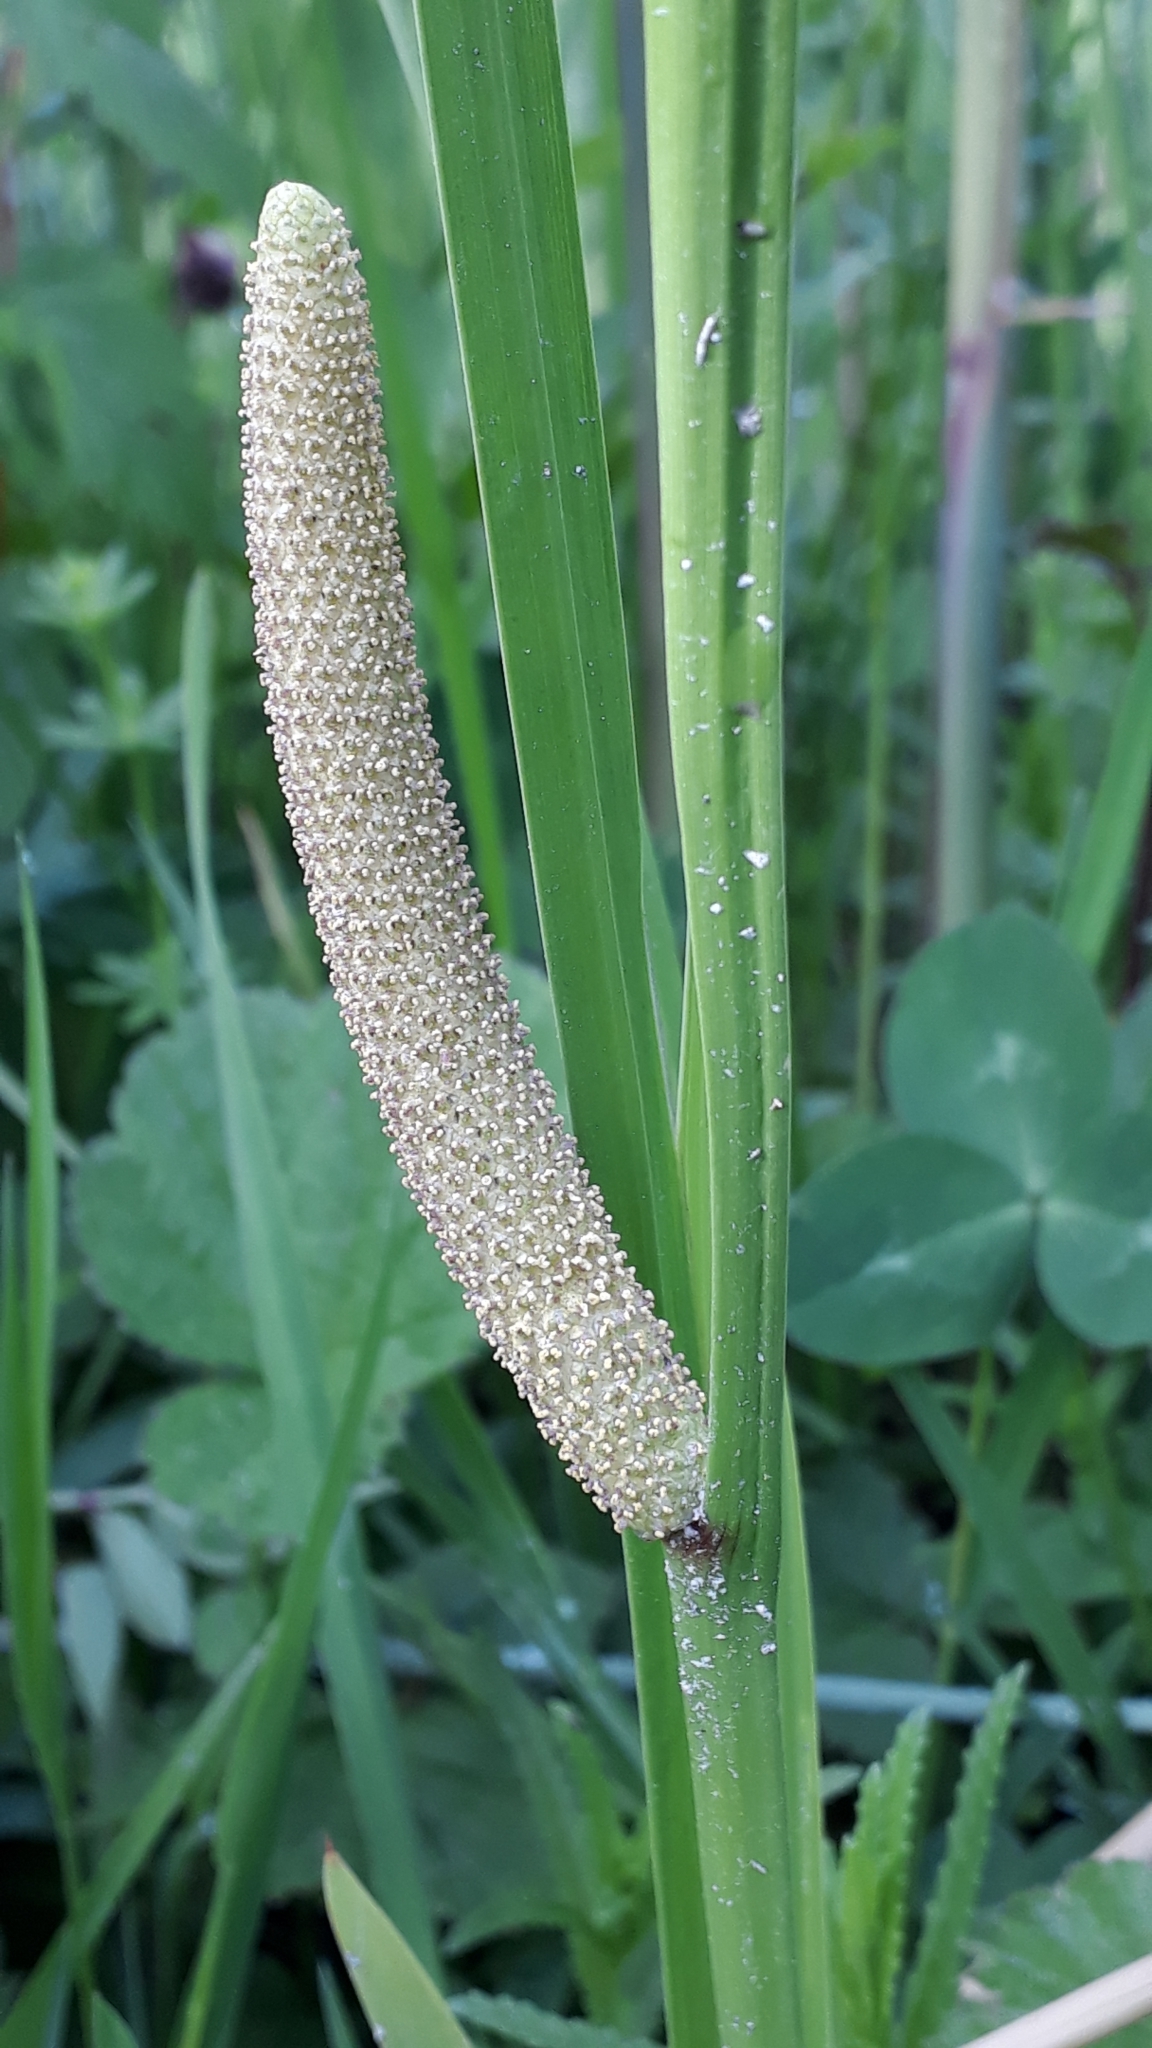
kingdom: Plantae
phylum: Tracheophyta
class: Liliopsida
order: Acorales
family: Acoraceae
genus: Acorus
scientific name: Acorus calamus
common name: Sweet-flag
